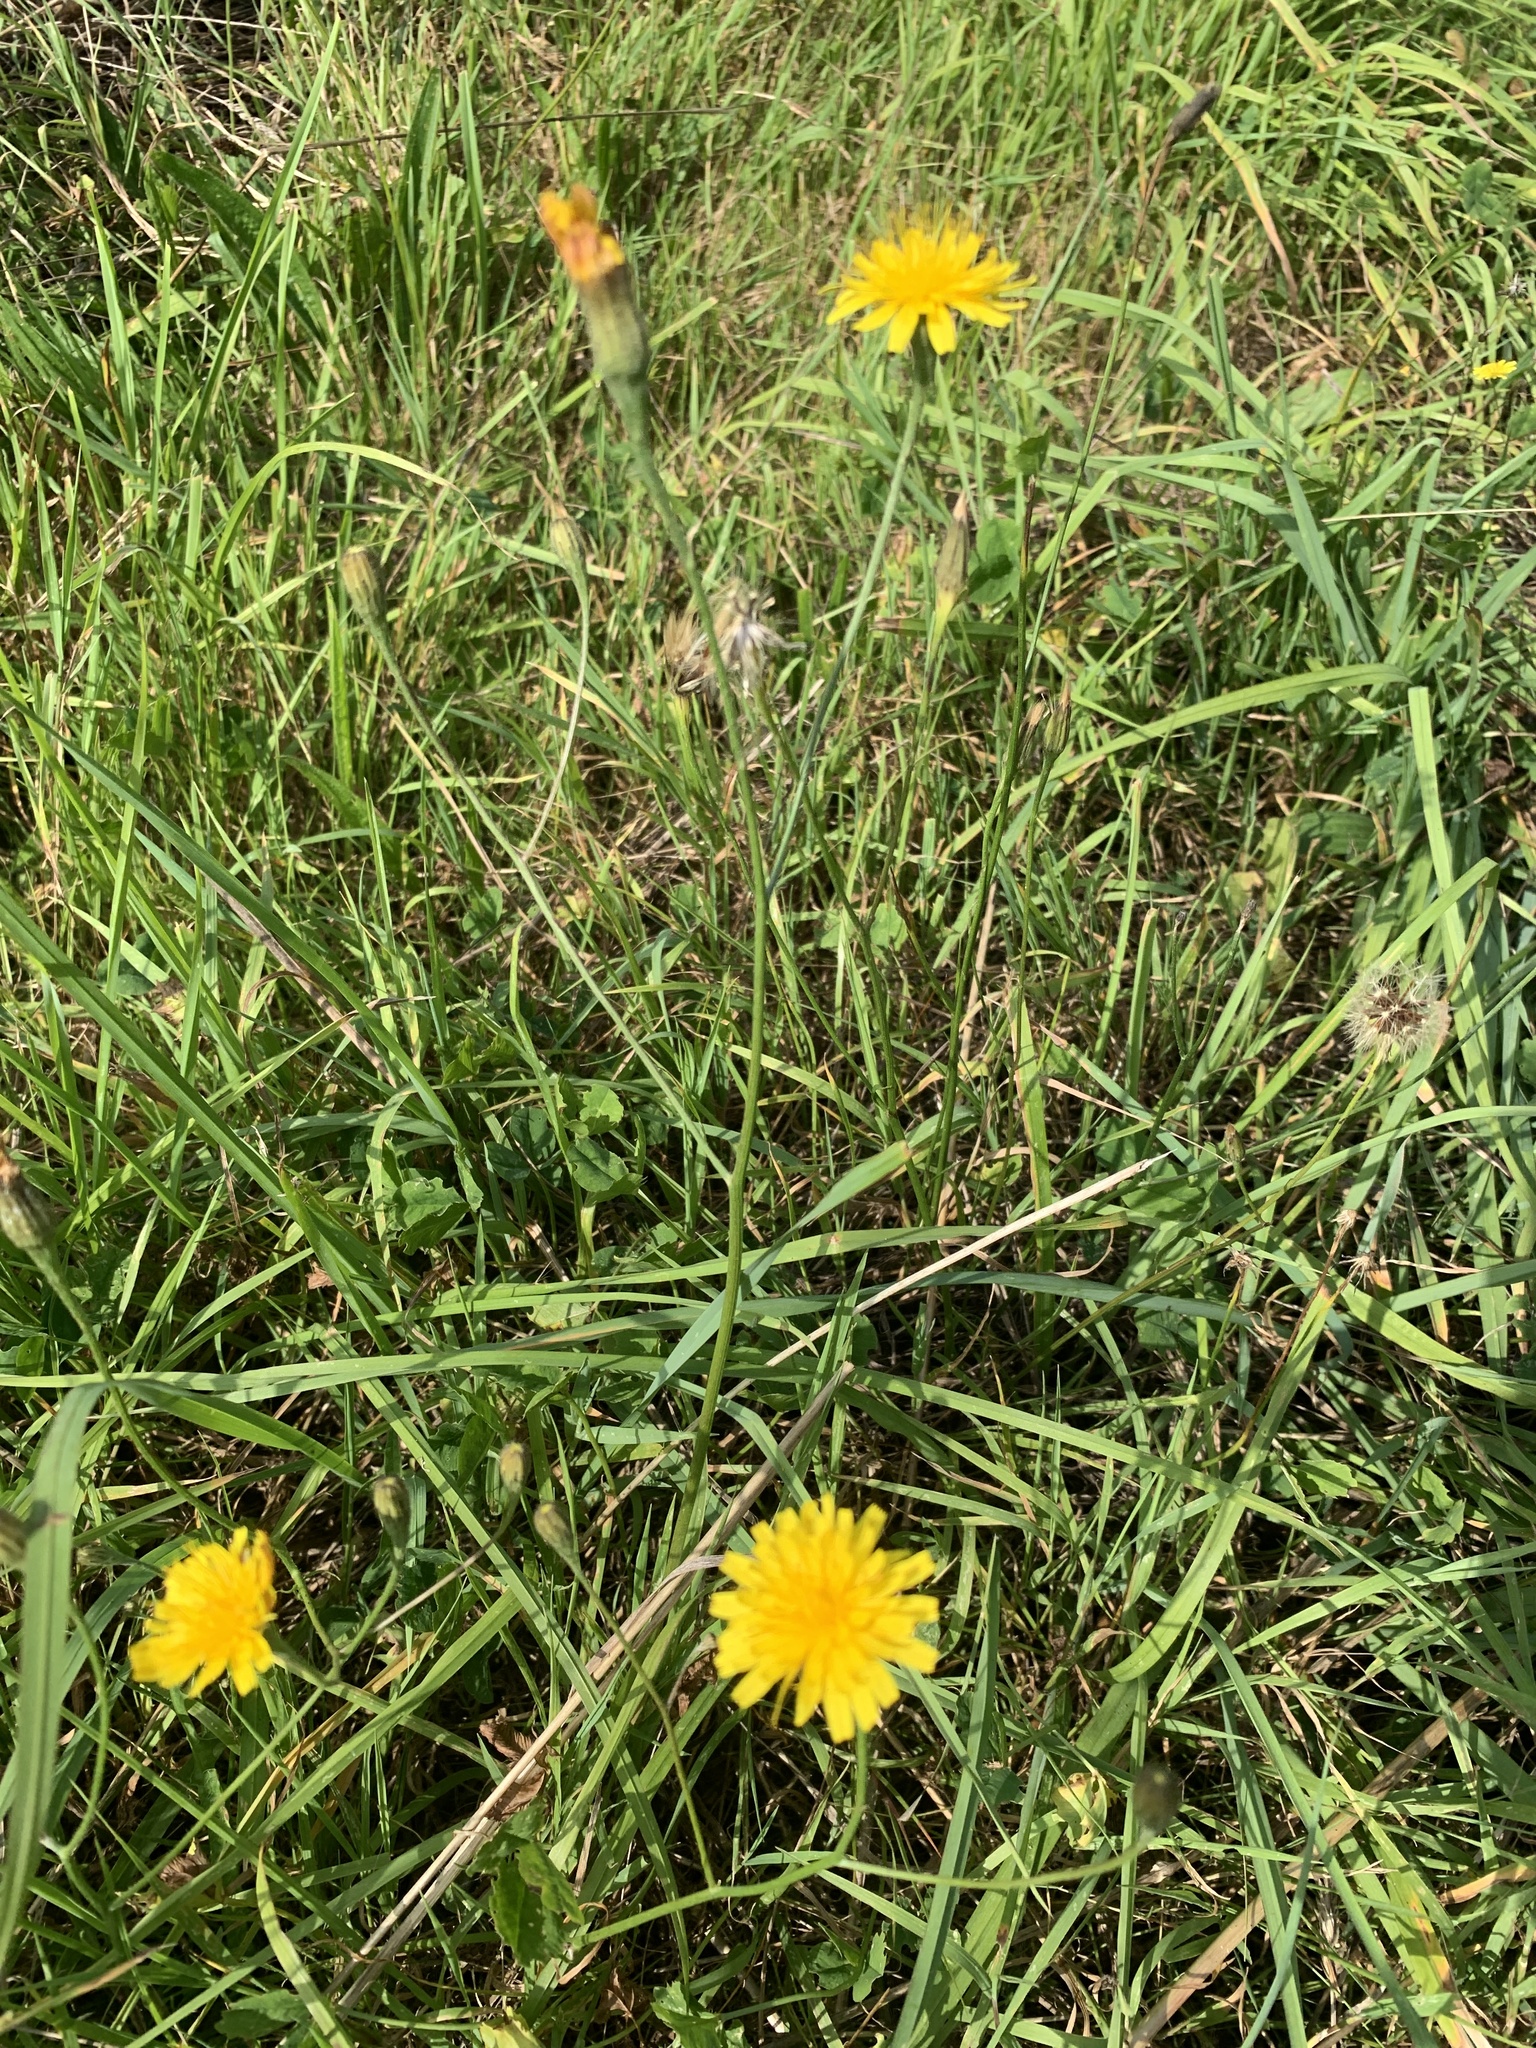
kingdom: Plantae
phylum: Tracheophyta
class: Magnoliopsida
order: Asterales
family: Asteraceae
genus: Scorzoneroides
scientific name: Scorzoneroides autumnalis
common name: Autumn hawkbit
